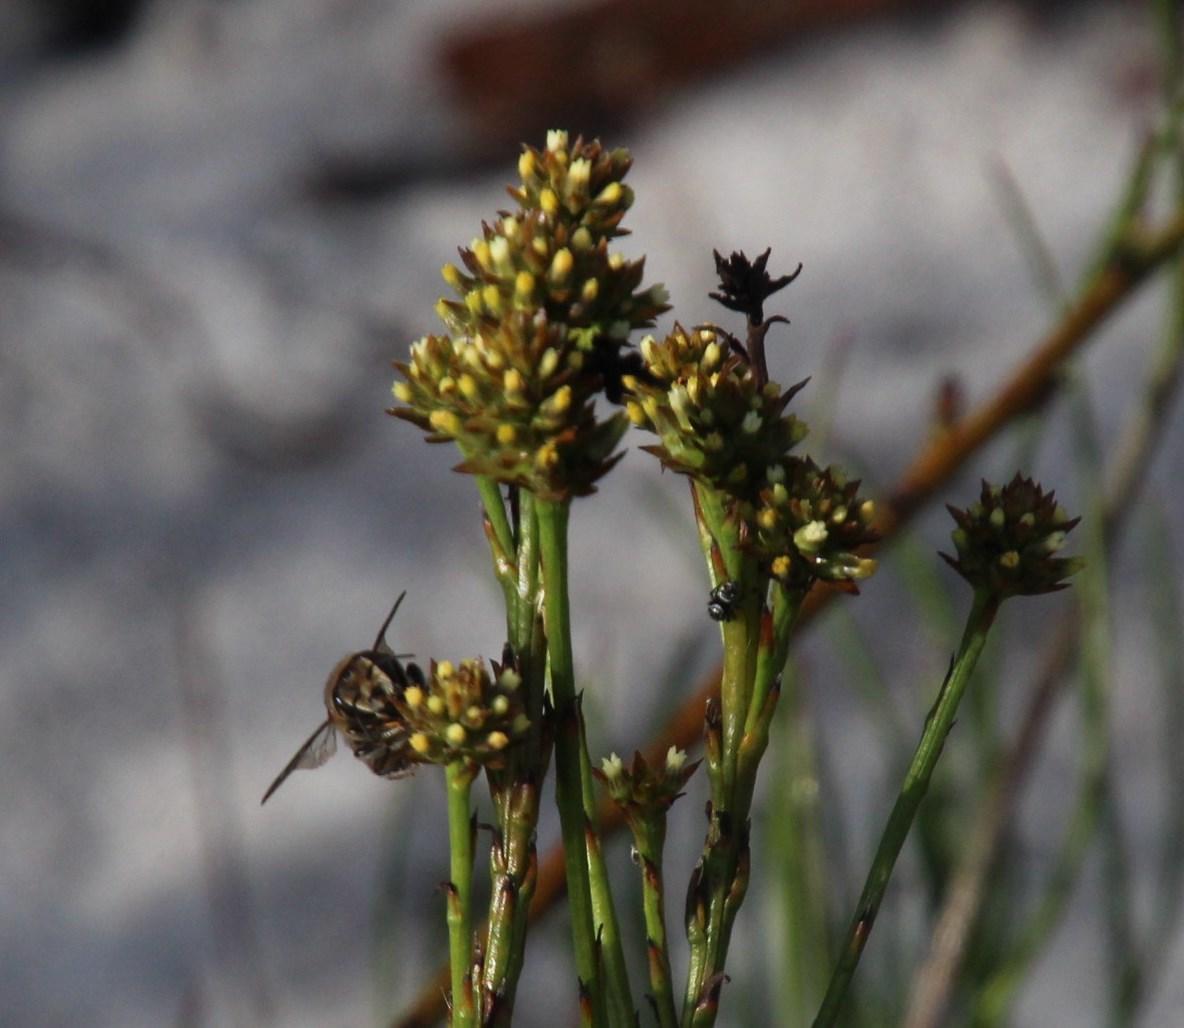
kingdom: Plantae
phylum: Tracheophyta
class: Magnoliopsida
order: Santalales
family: Thesiaceae
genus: Thesium
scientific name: Thesium aggregatum
